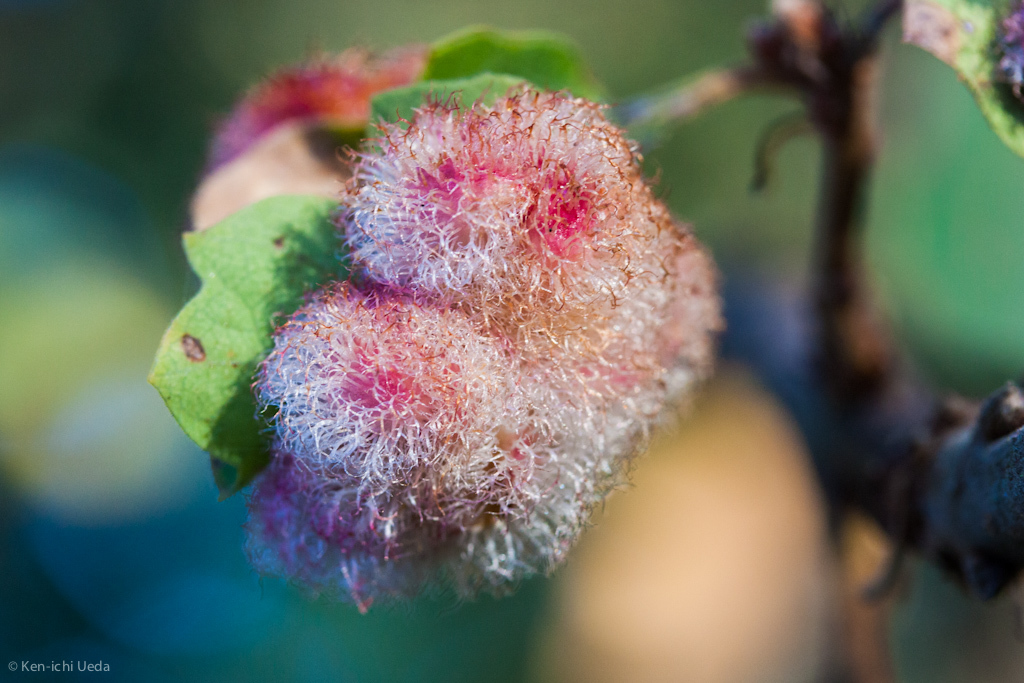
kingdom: Animalia
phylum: Arthropoda
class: Insecta
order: Hymenoptera
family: Cynipidae
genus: Andricus
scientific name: Andricus
